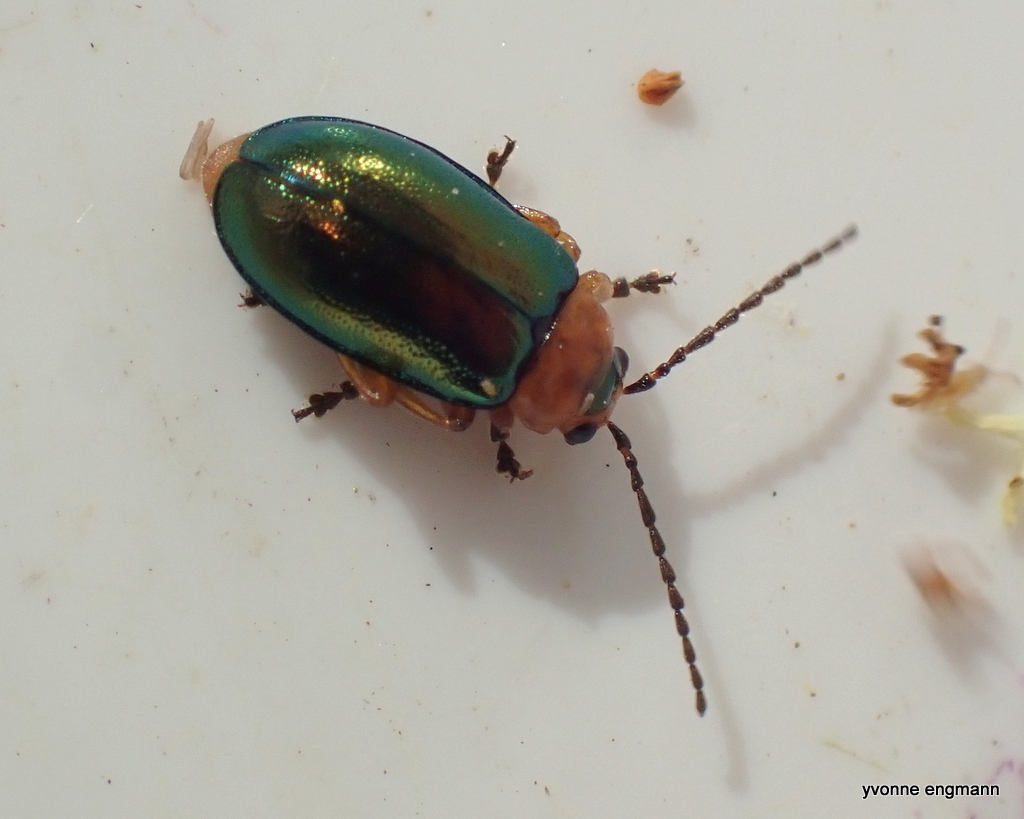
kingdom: Animalia
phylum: Arthropoda
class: Insecta
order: Coleoptera
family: Chrysomelidae
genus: Sermylassa
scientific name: Sermylassa halensis
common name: Leaf beetle
